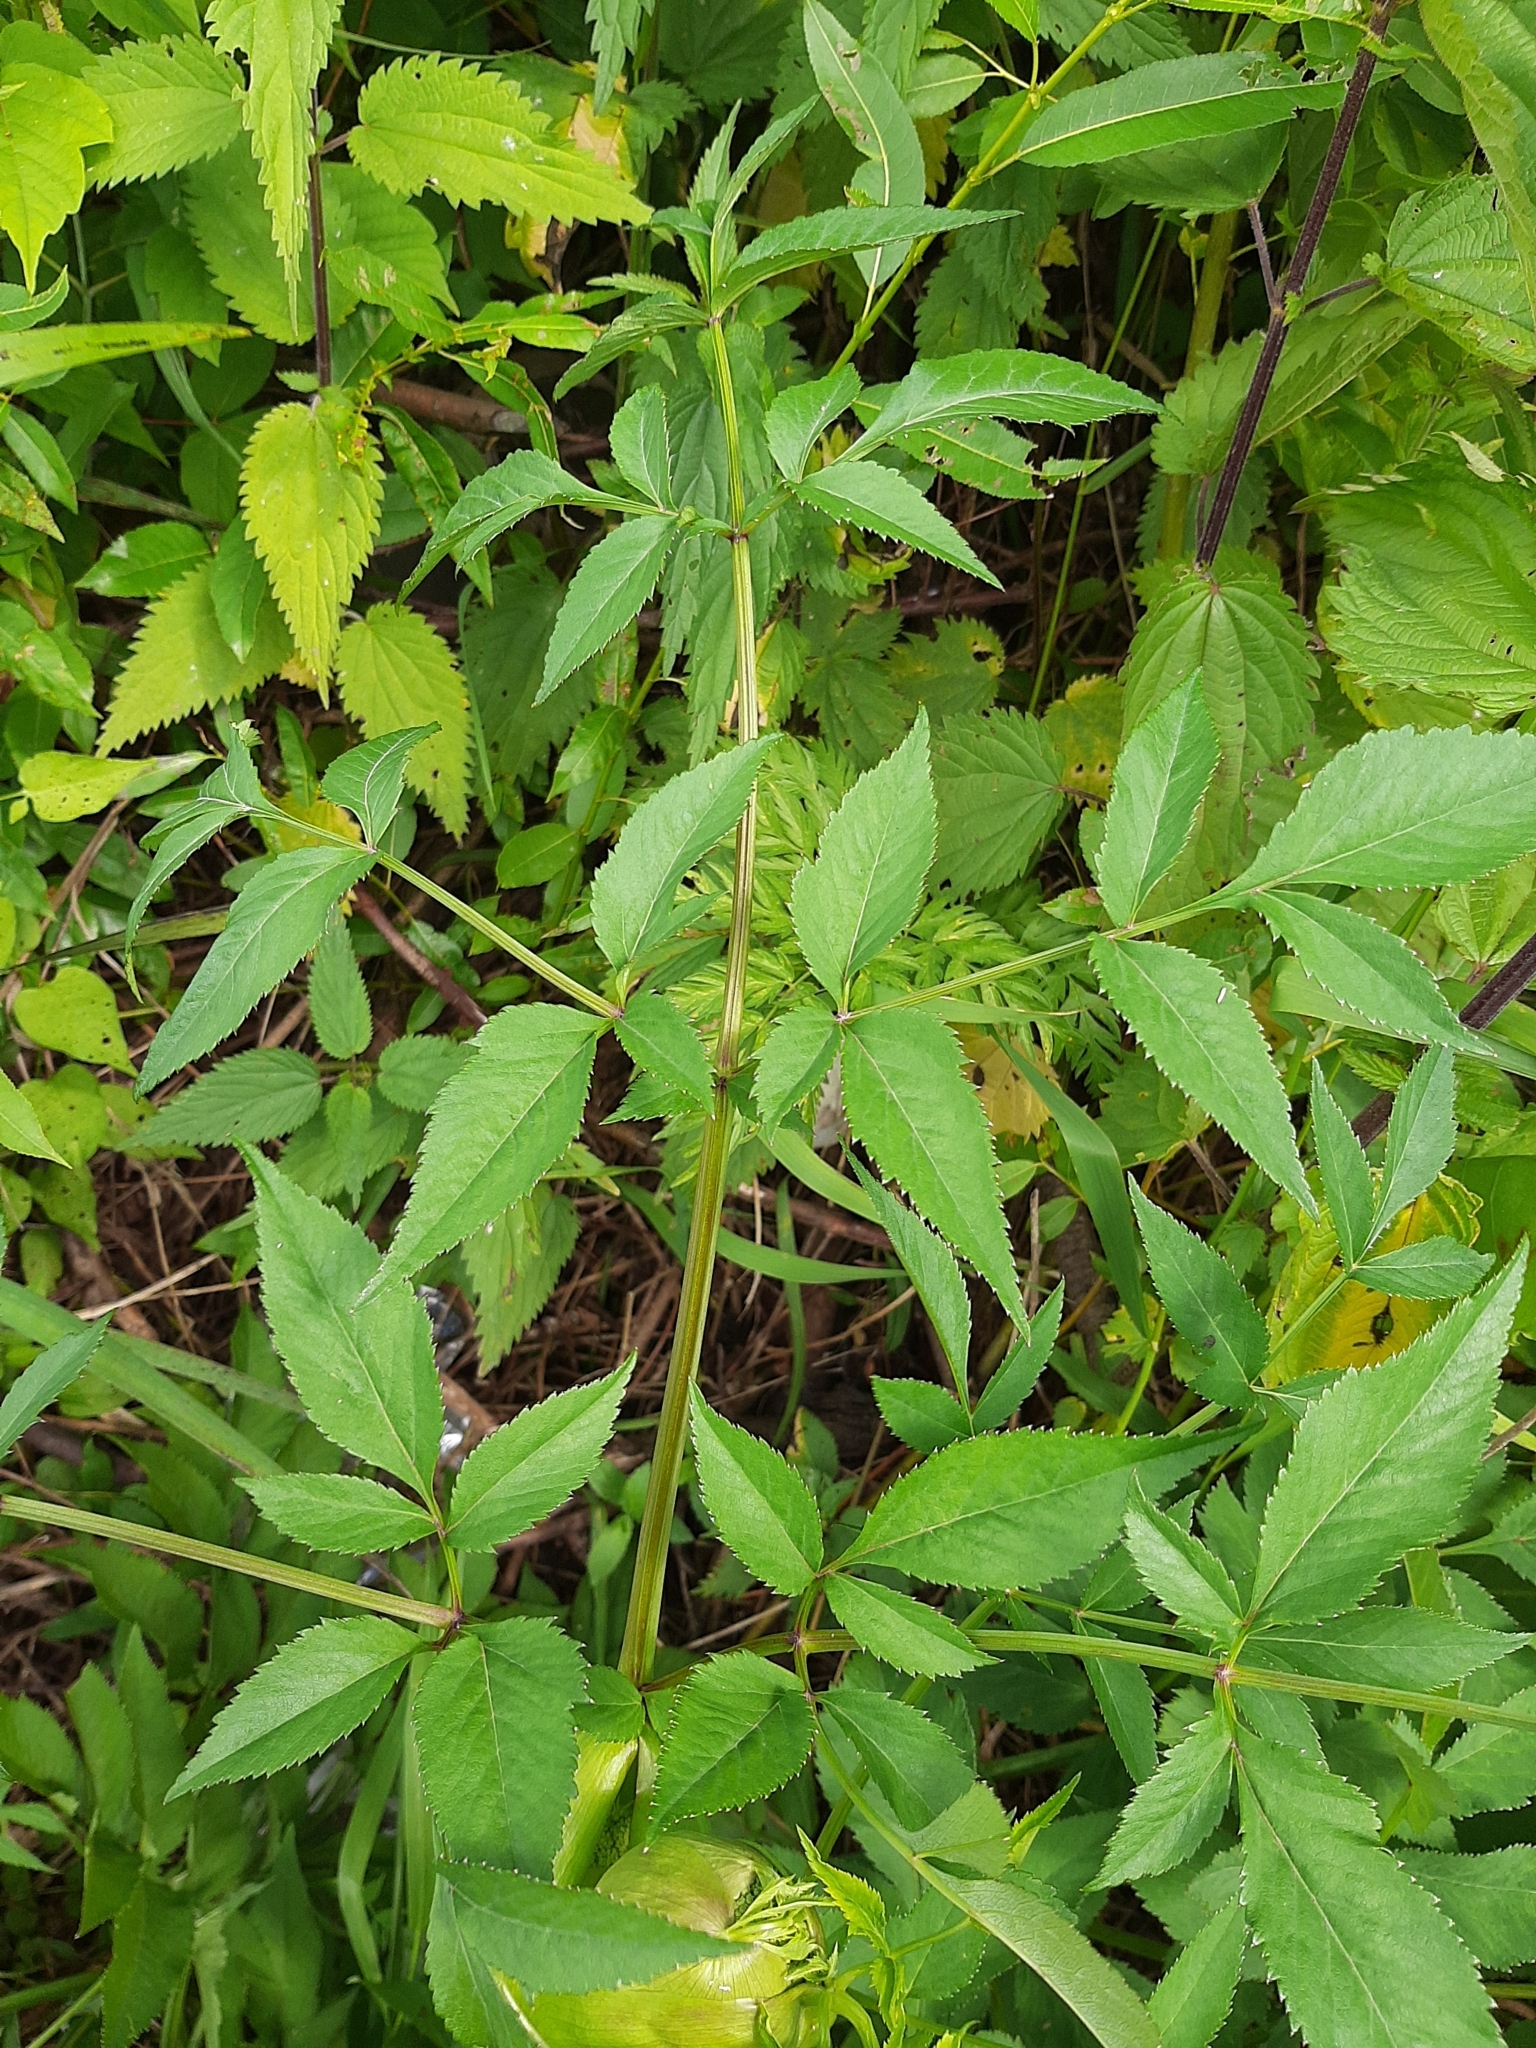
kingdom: Plantae
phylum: Tracheophyta
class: Magnoliopsida
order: Apiales
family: Apiaceae
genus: Angelica
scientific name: Angelica sylvestris
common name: Wild angelica
